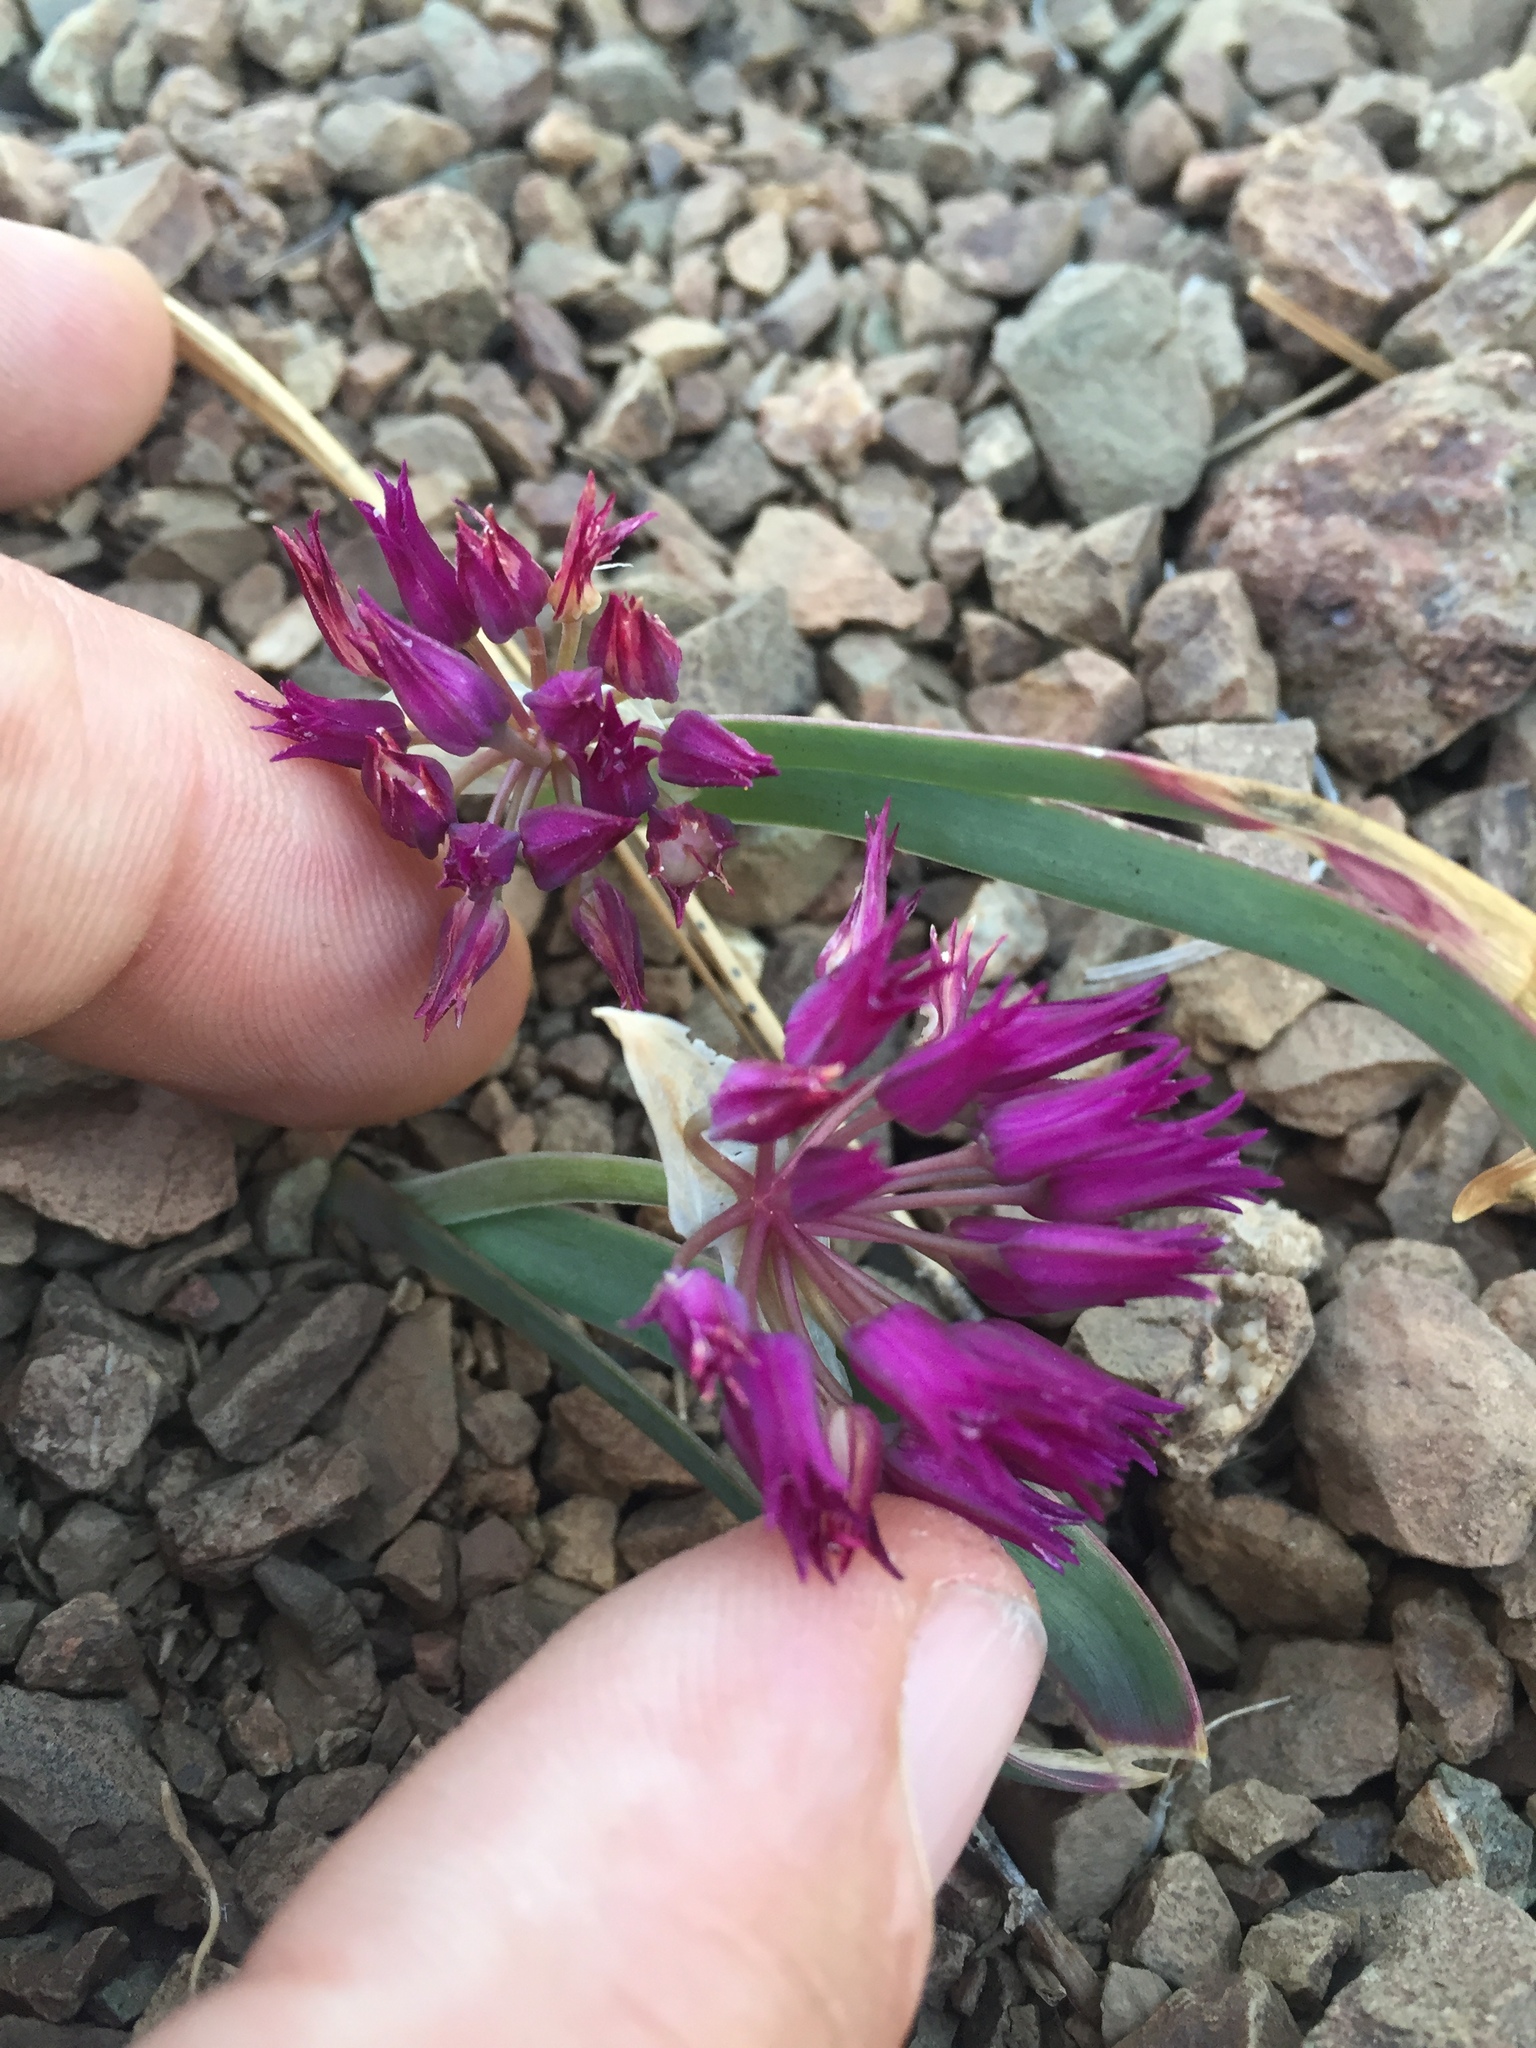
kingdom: Plantae
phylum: Tracheophyta
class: Liliopsida
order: Asparagales
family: Amaryllidaceae
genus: Allium
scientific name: Allium falcifolium
